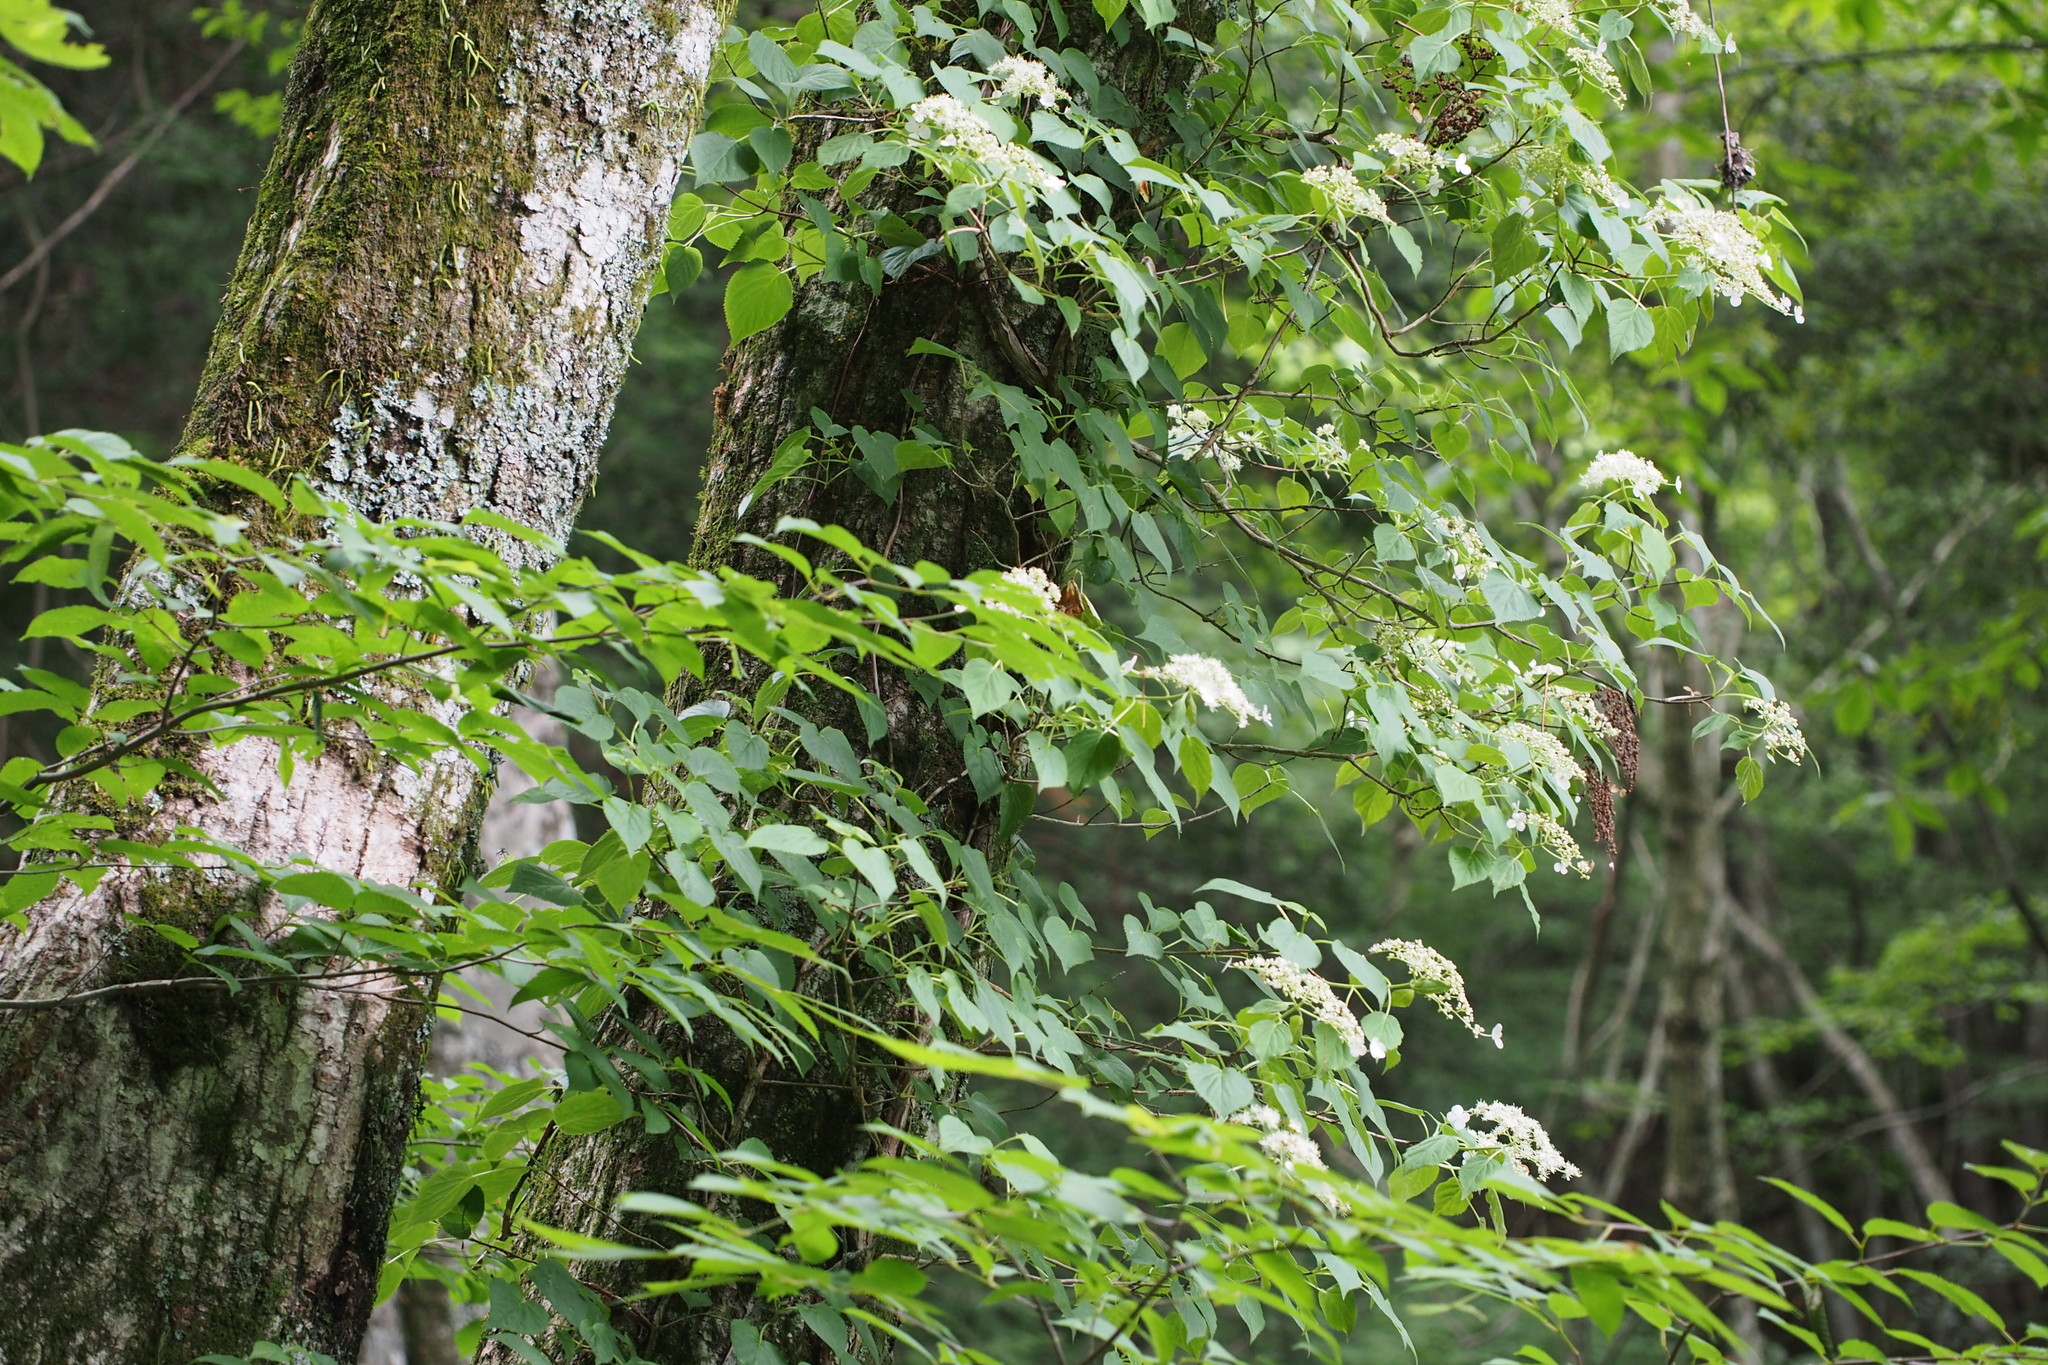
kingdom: Plantae
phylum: Tracheophyta
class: Magnoliopsida
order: Cornales
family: Hydrangeaceae
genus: Hydrangea
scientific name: Hydrangea petiolaris
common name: Japanese climbing hydrangea
